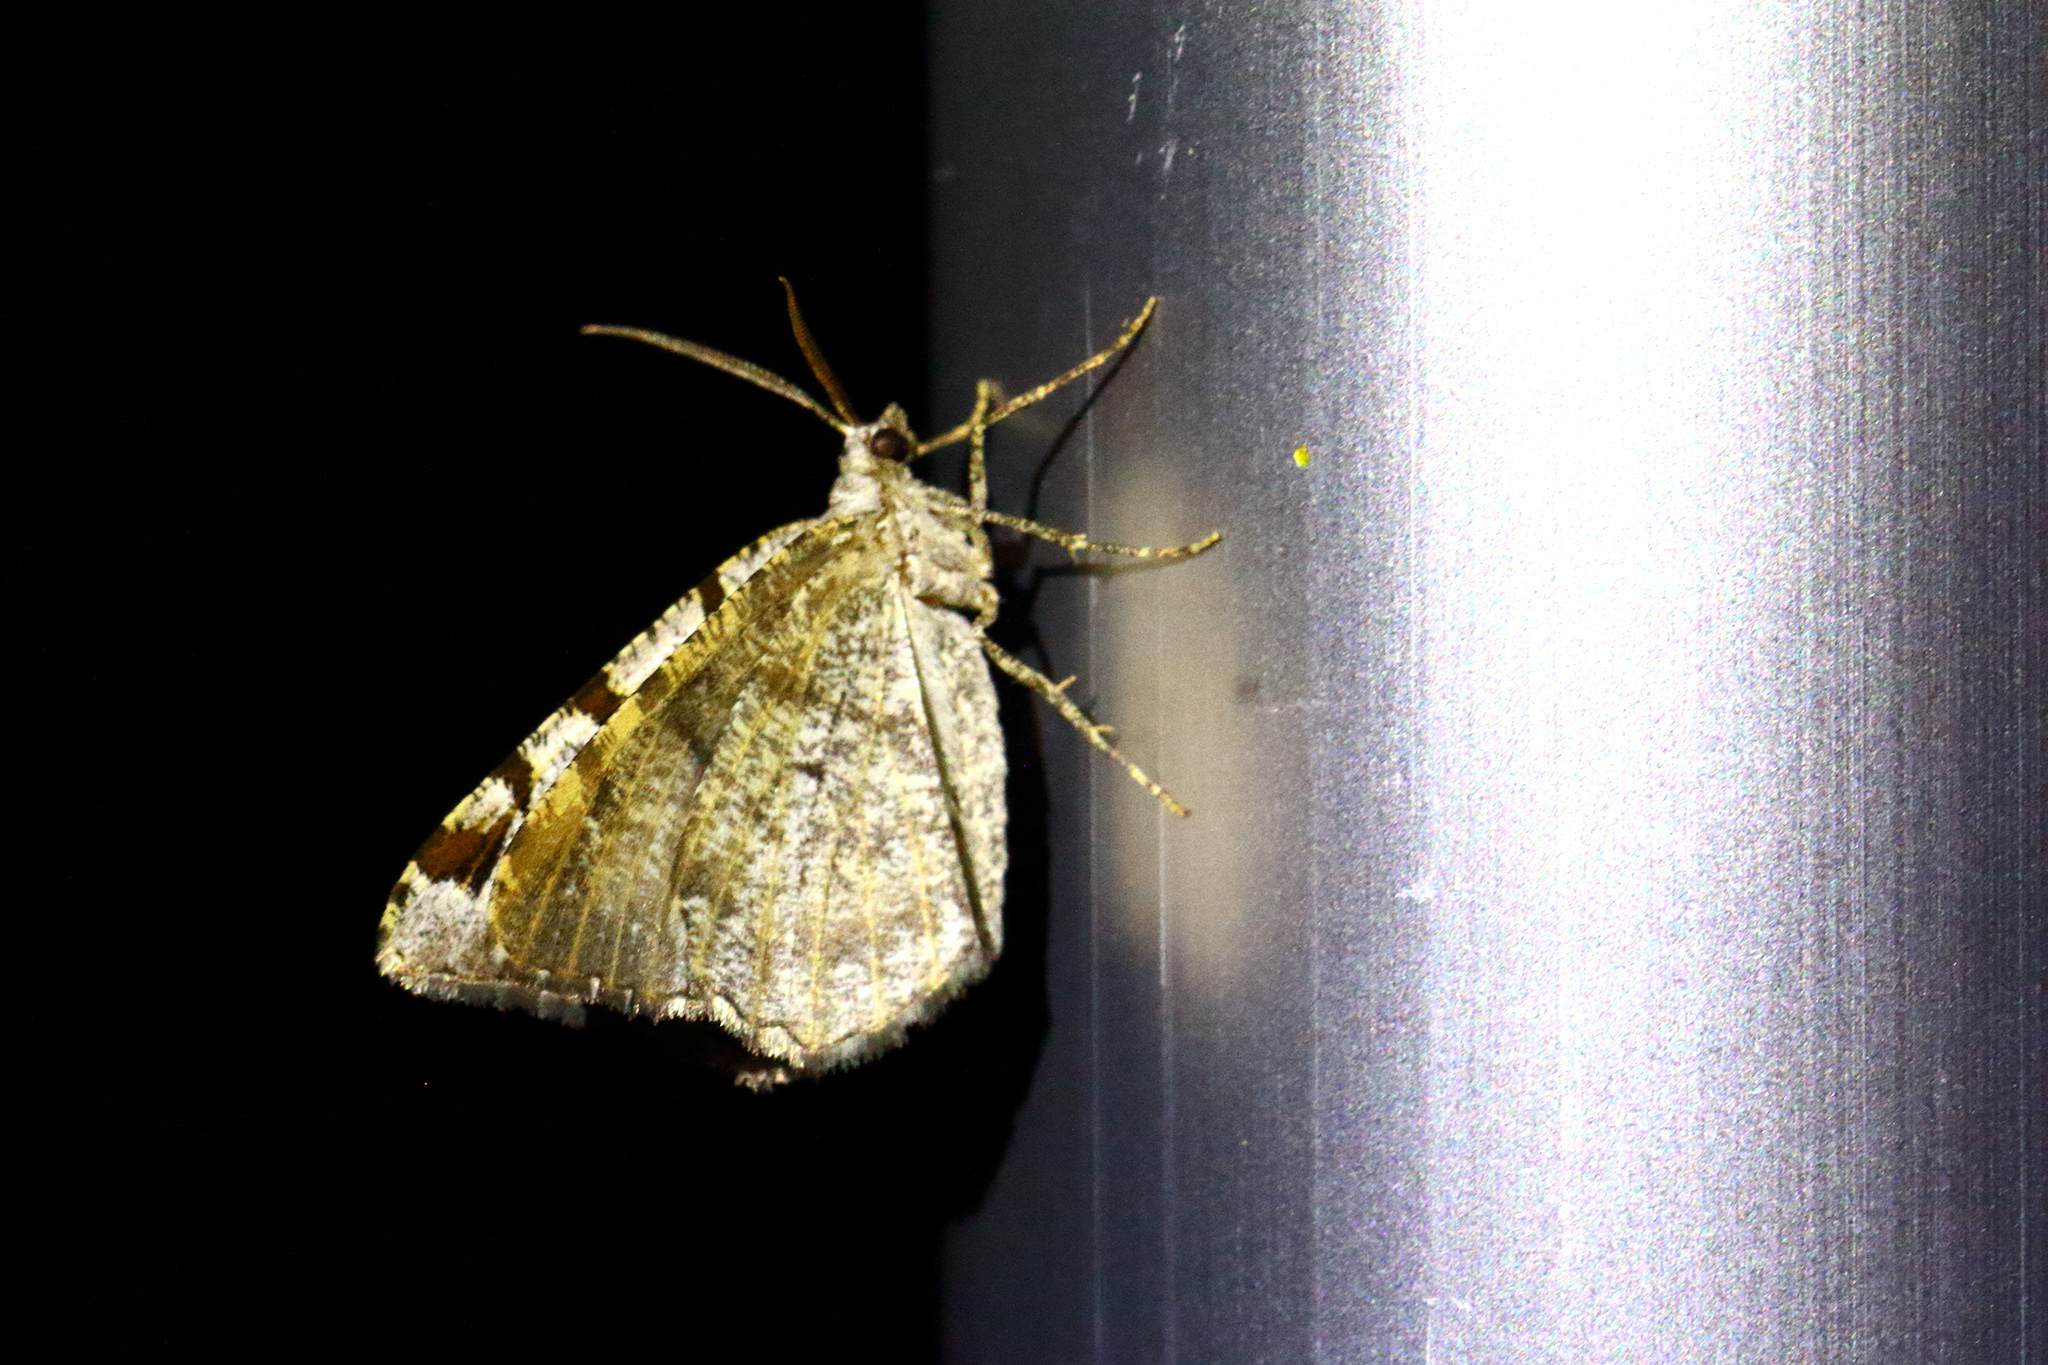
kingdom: Animalia
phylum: Arthropoda
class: Insecta
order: Lepidoptera
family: Geometridae
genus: Macaria
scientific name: Macaria wauaria
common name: V-moth
